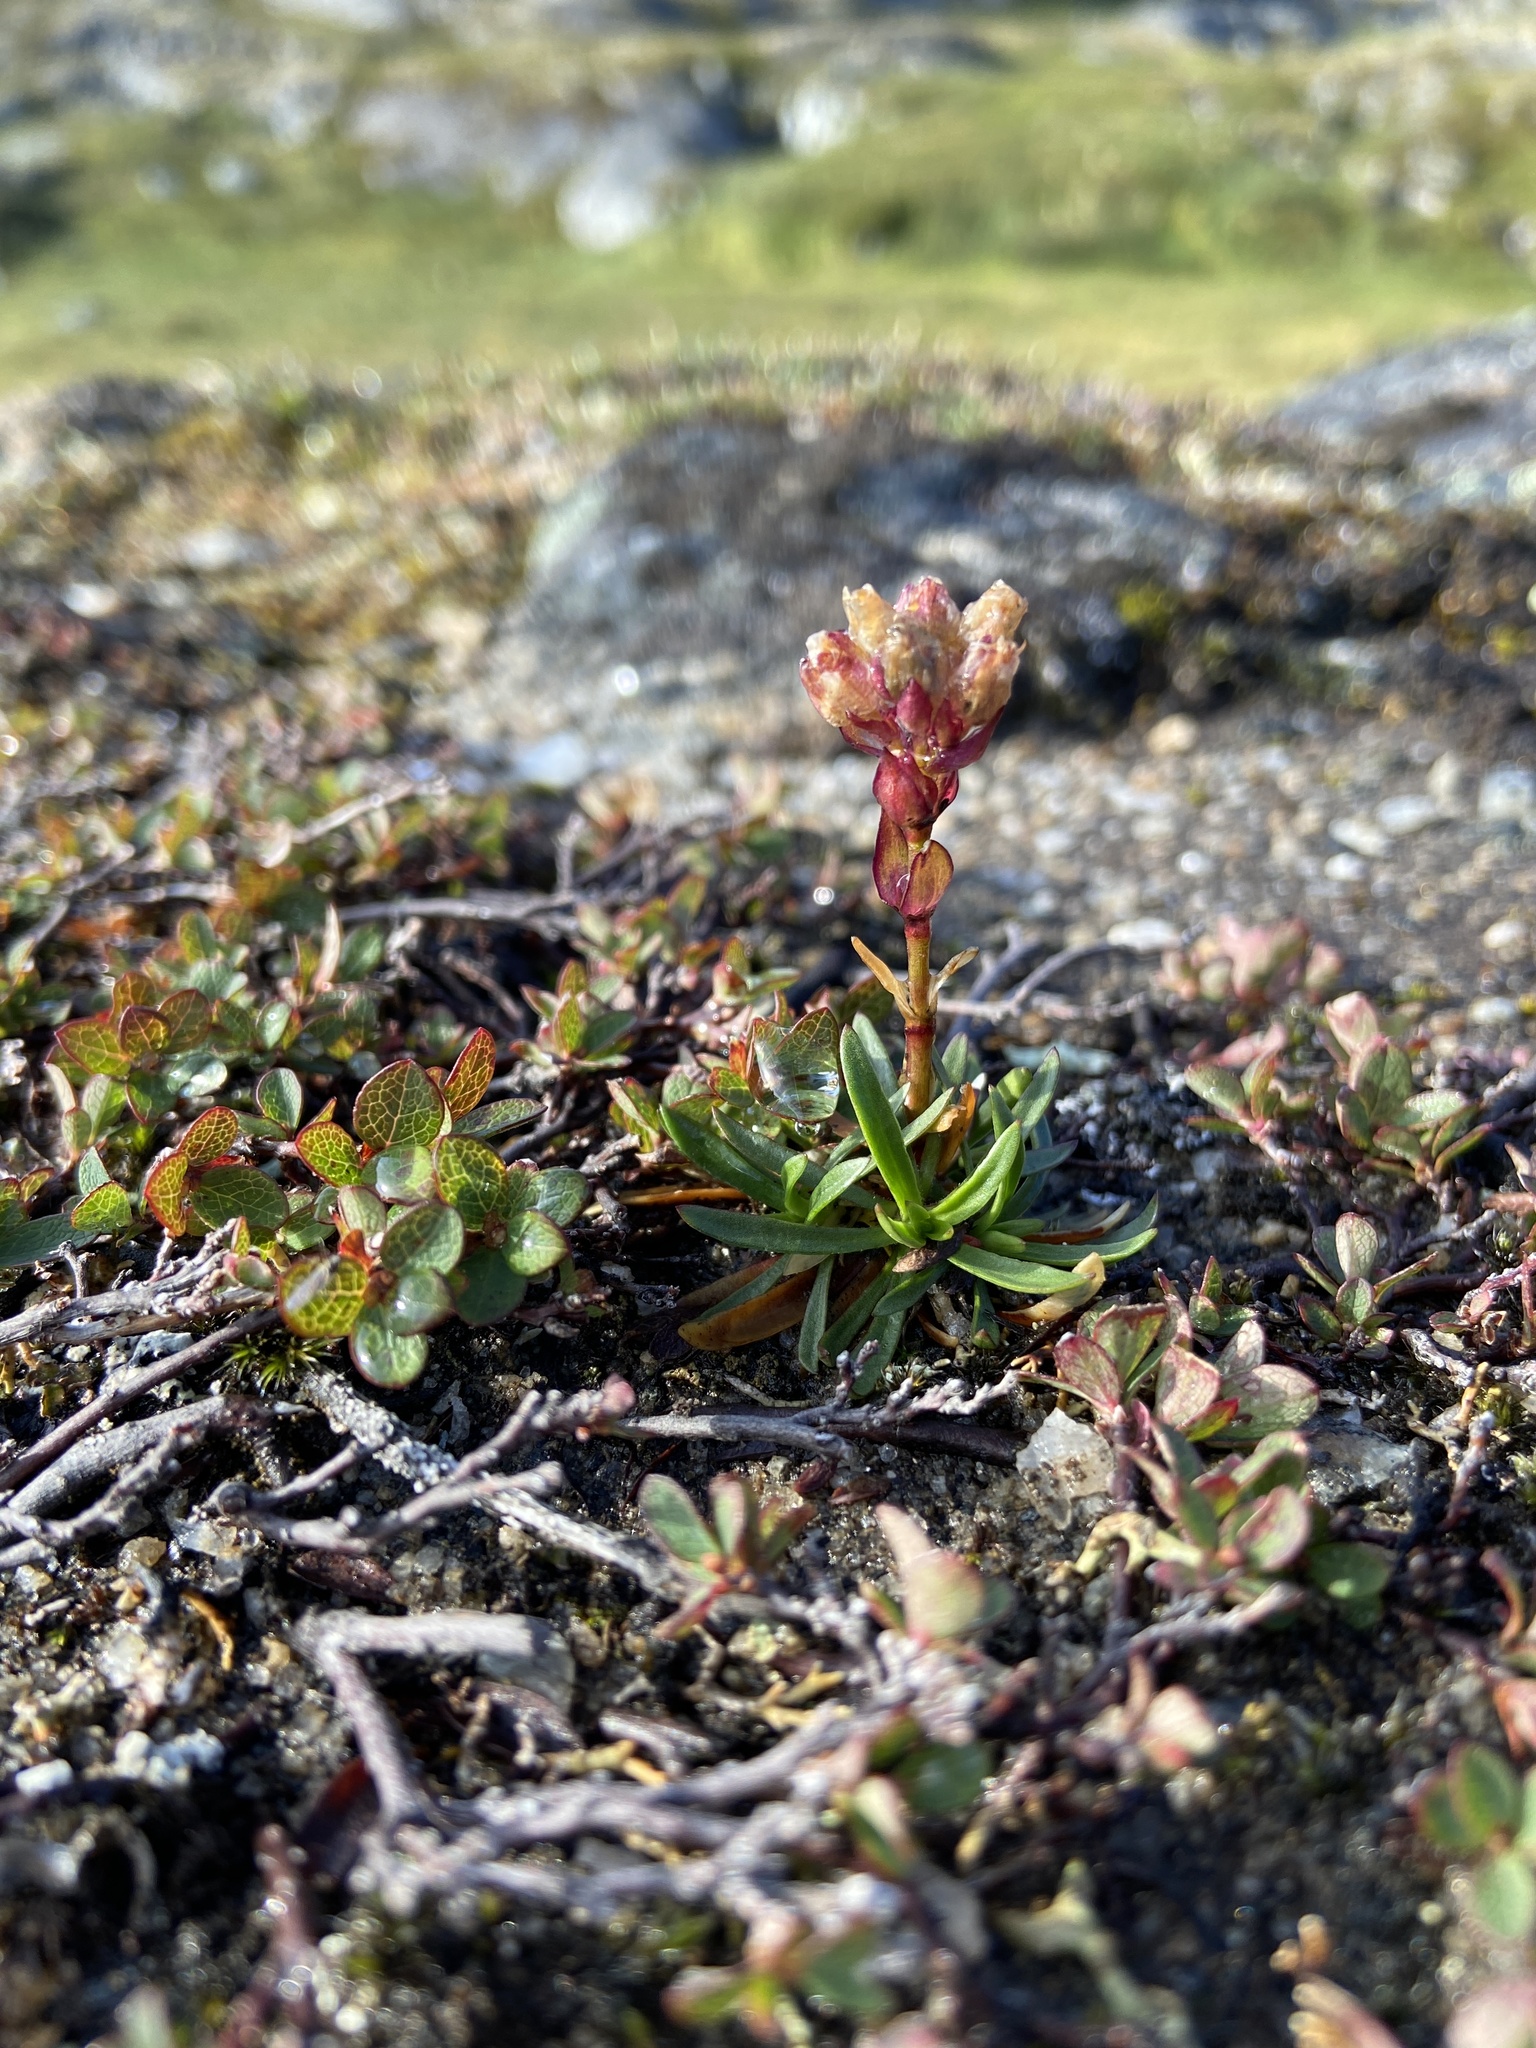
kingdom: Plantae
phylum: Tracheophyta
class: Magnoliopsida
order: Caryophyllales
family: Caryophyllaceae
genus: Viscaria
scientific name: Viscaria alpina
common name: Alpine campion
